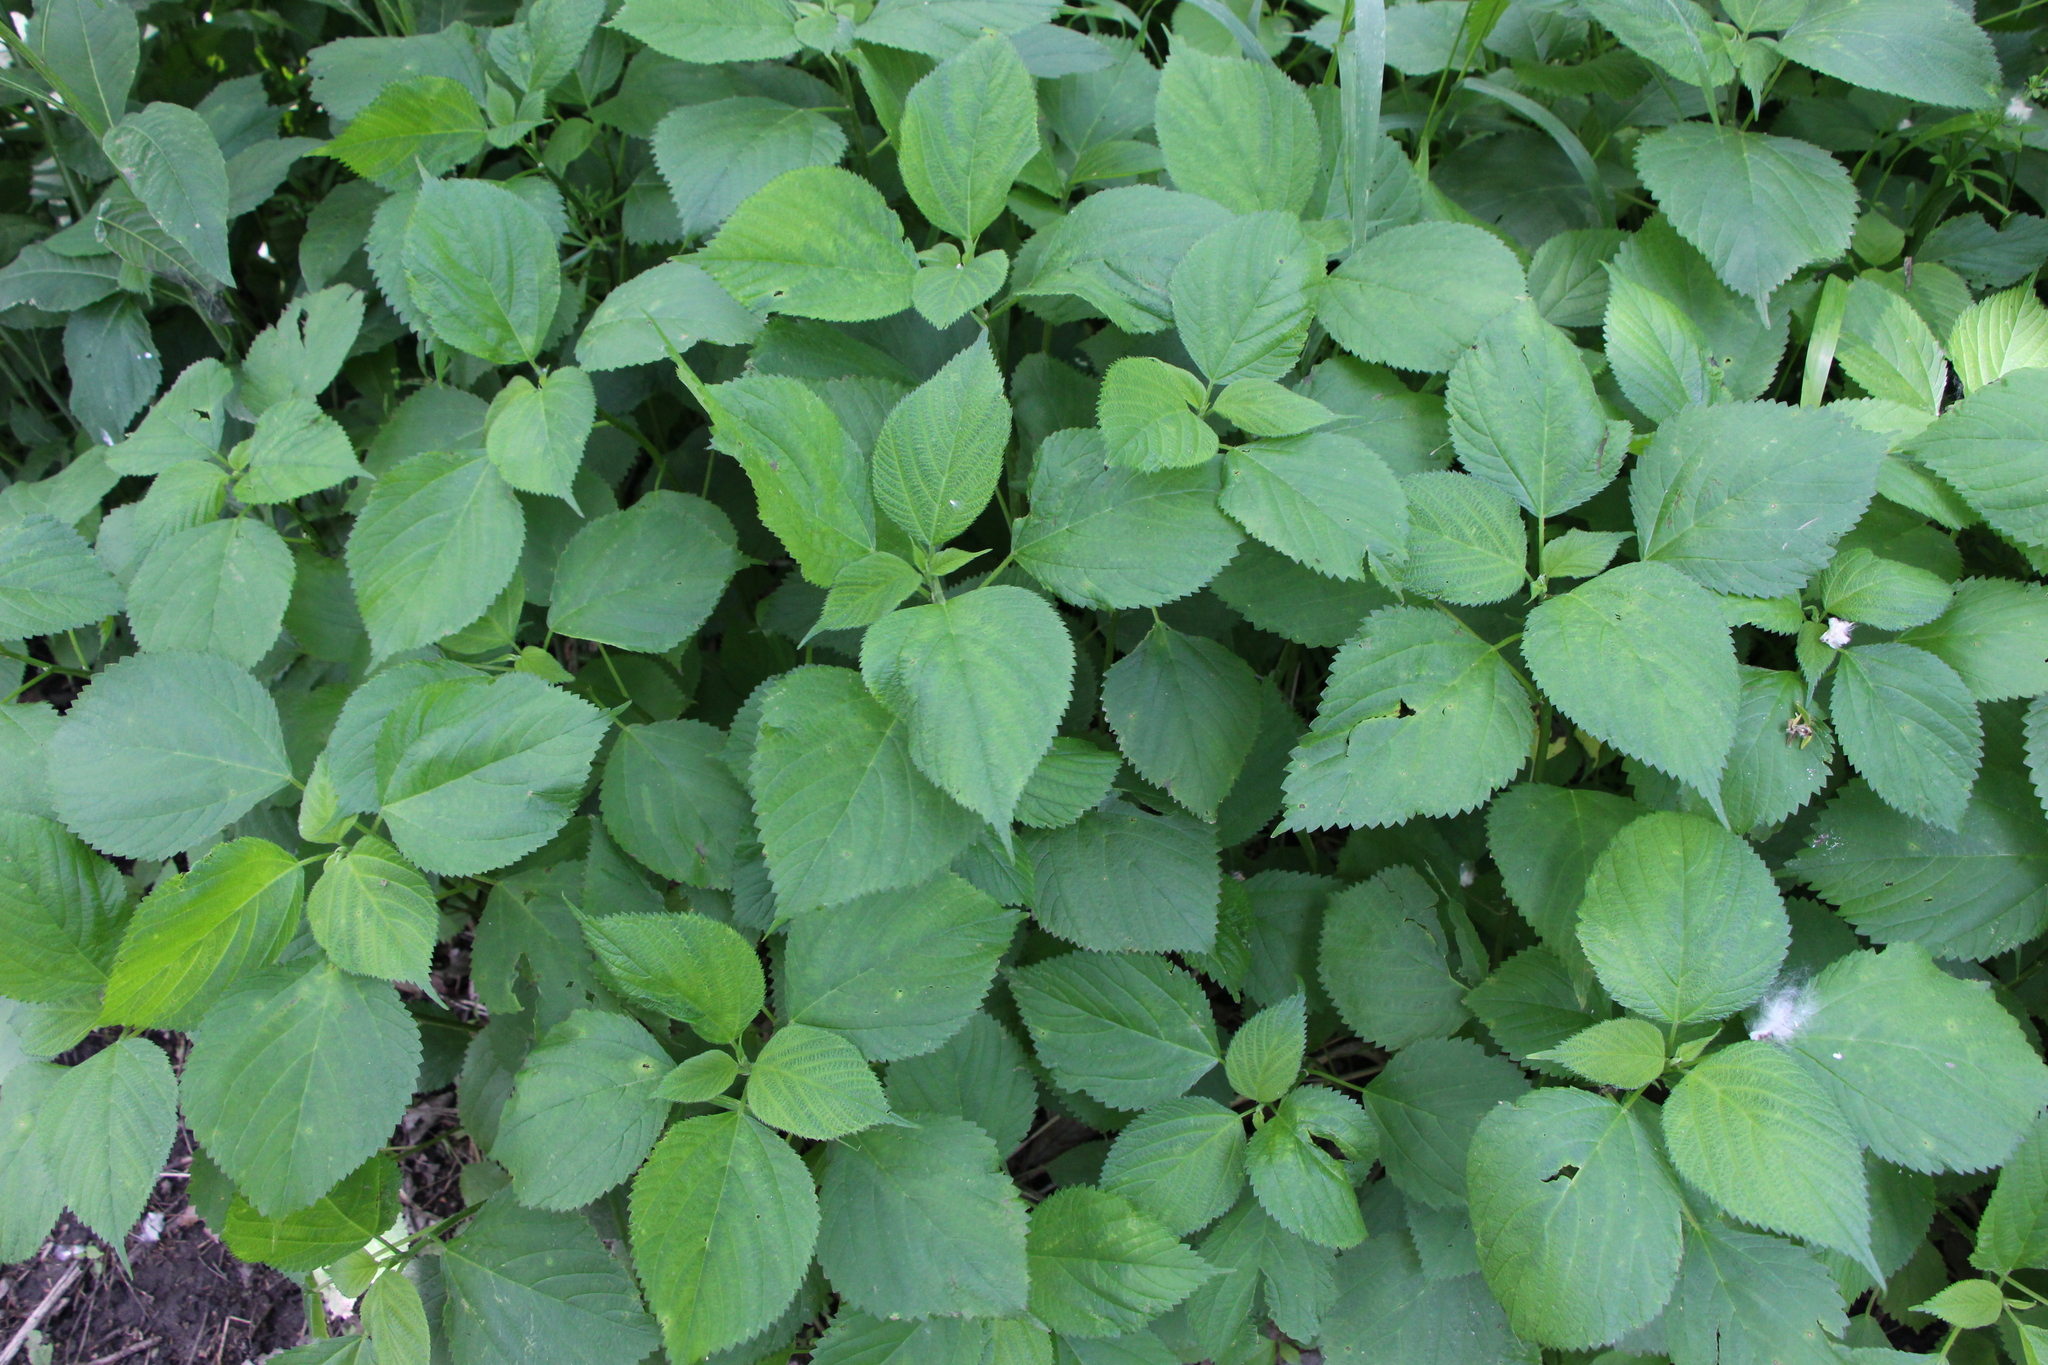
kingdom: Plantae
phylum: Tracheophyta
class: Magnoliopsida
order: Rosales
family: Urticaceae
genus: Laportea
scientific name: Laportea canadensis
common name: Canada nettle
